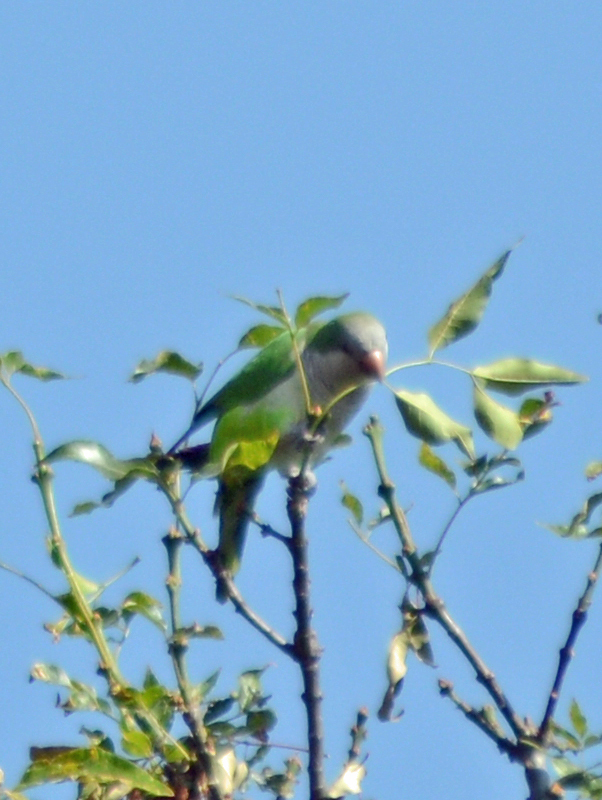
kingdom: Animalia
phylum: Chordata
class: Aves
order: Psittaciformes
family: Psittacidae
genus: Myiopsitta
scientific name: Myiopsitta monachus
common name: Monk parakeet
